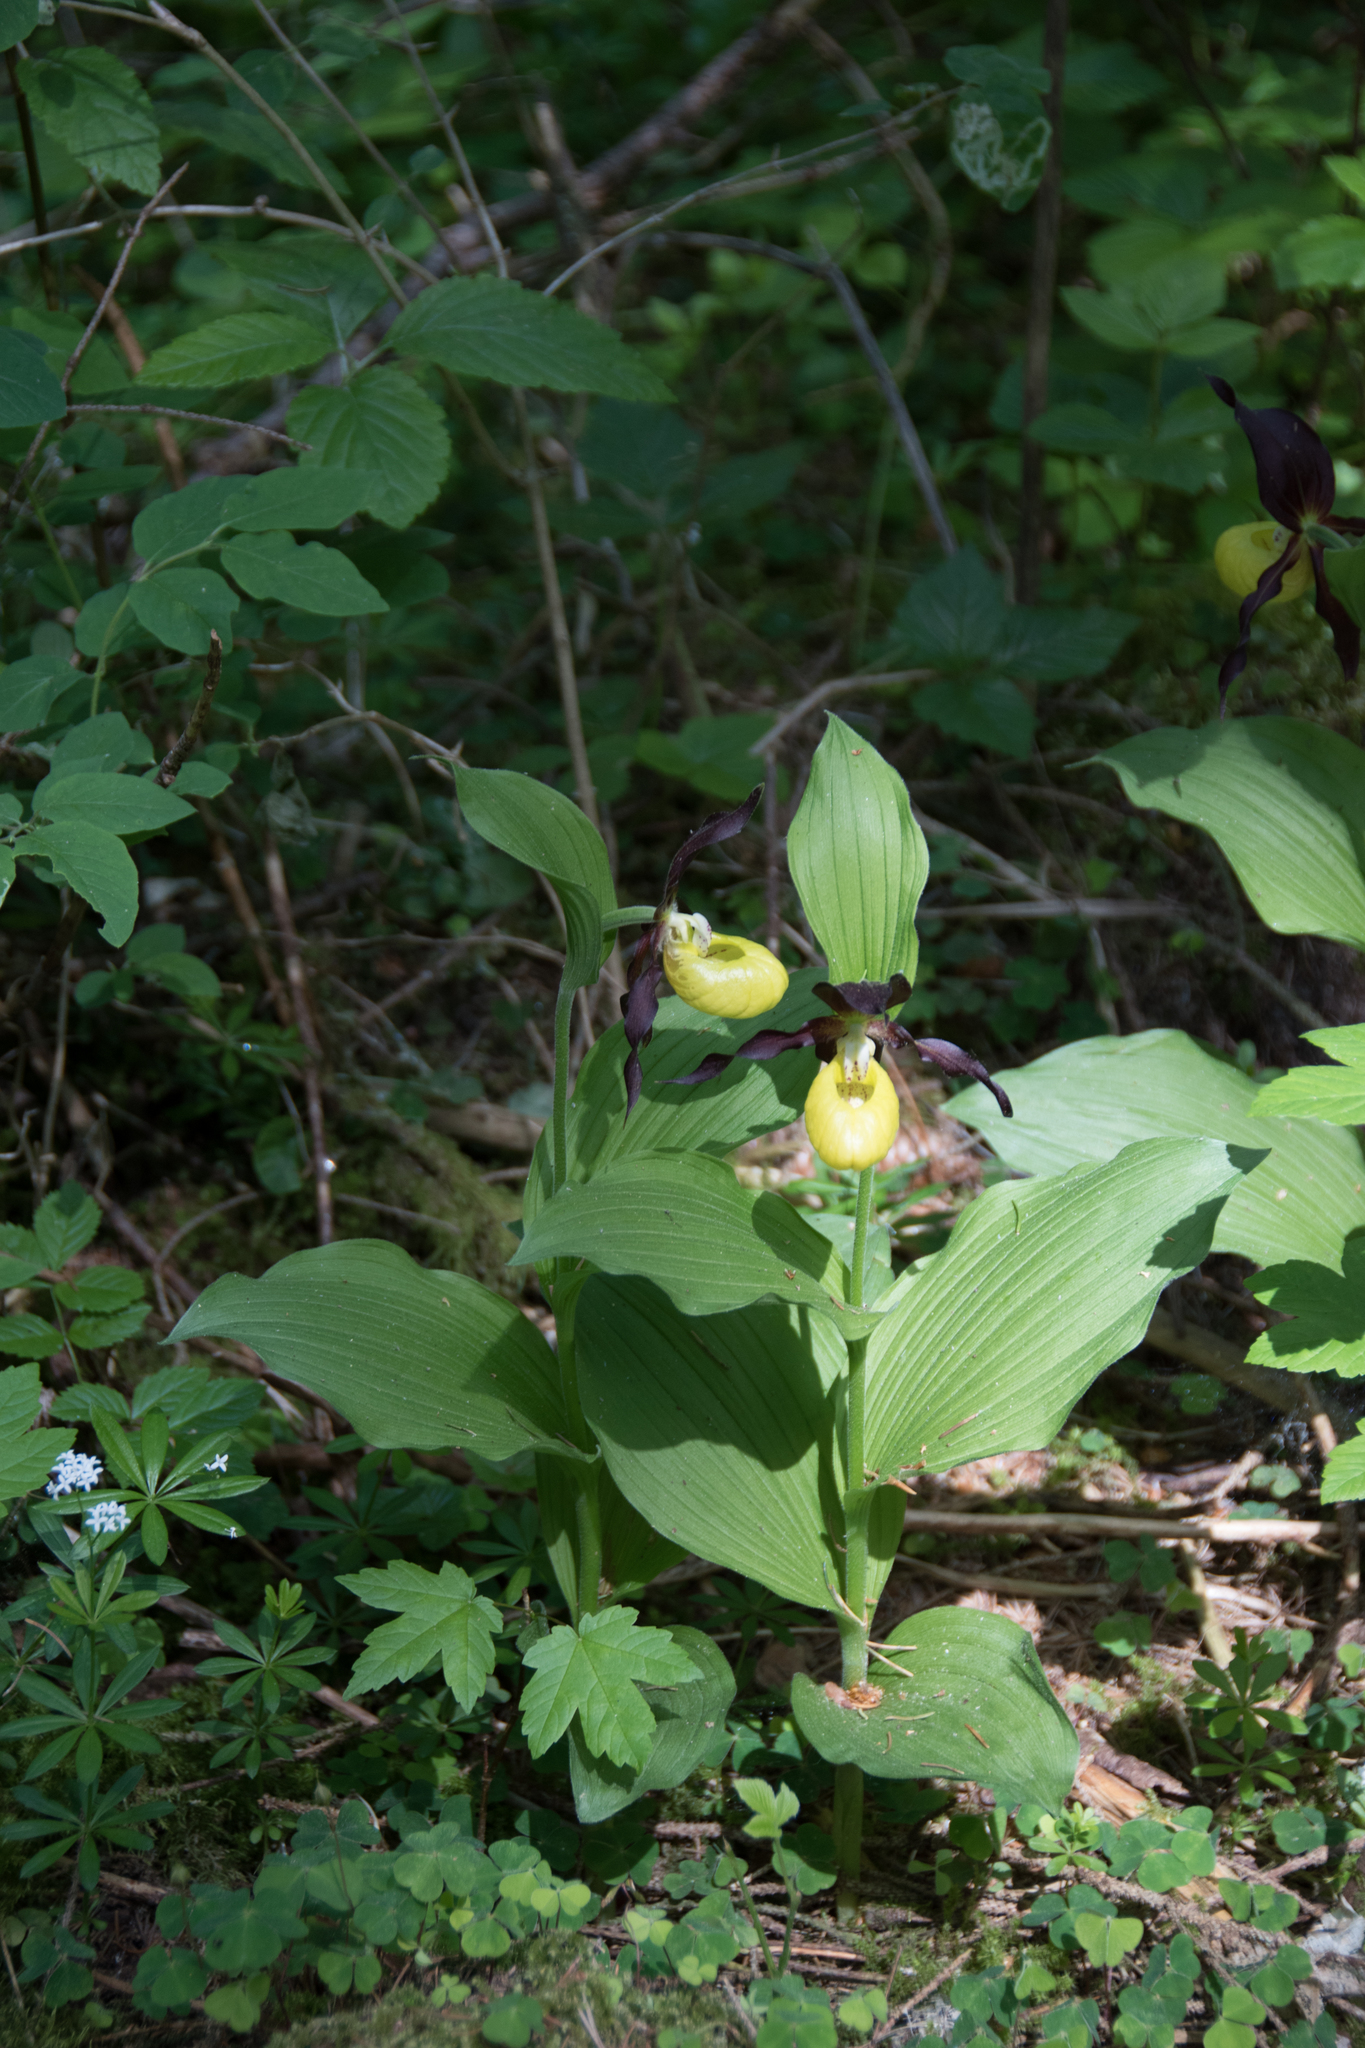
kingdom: Plantae
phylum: Tracheophyta
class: Liliopsida
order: Asparagales
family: Orchidaceae
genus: Cypripedium
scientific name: Cypripedium calceolus
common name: Lady's-slipper
